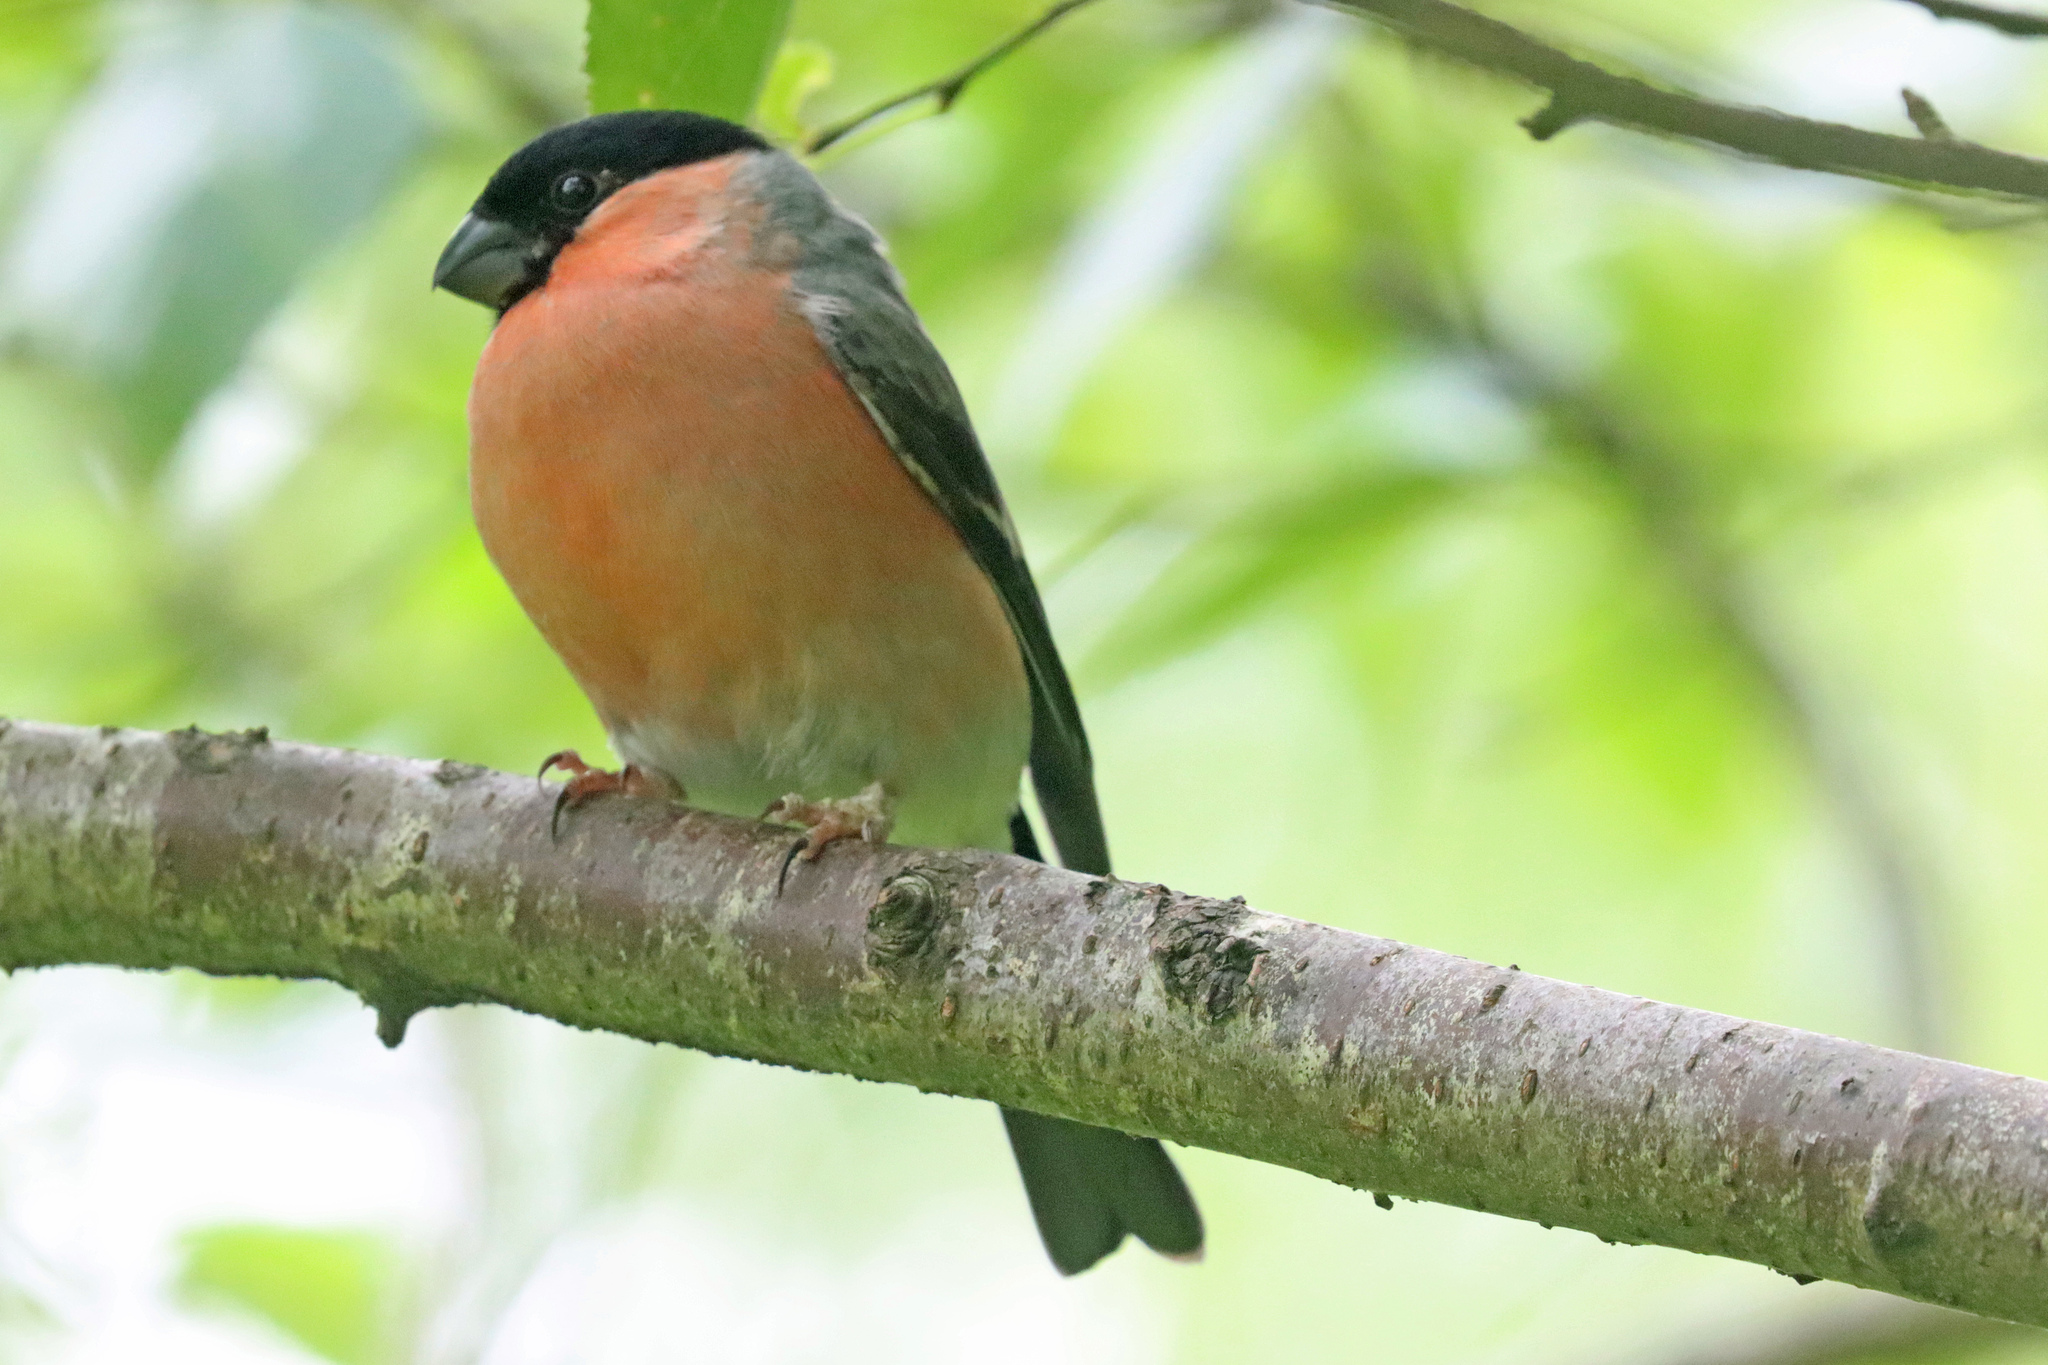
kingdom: Animalia
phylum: Chordata
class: Aves
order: Passeriformes
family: Fringillidae
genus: Pyrrhula
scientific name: Pyrrhula pyrrhula
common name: Eurasian bullfinch
